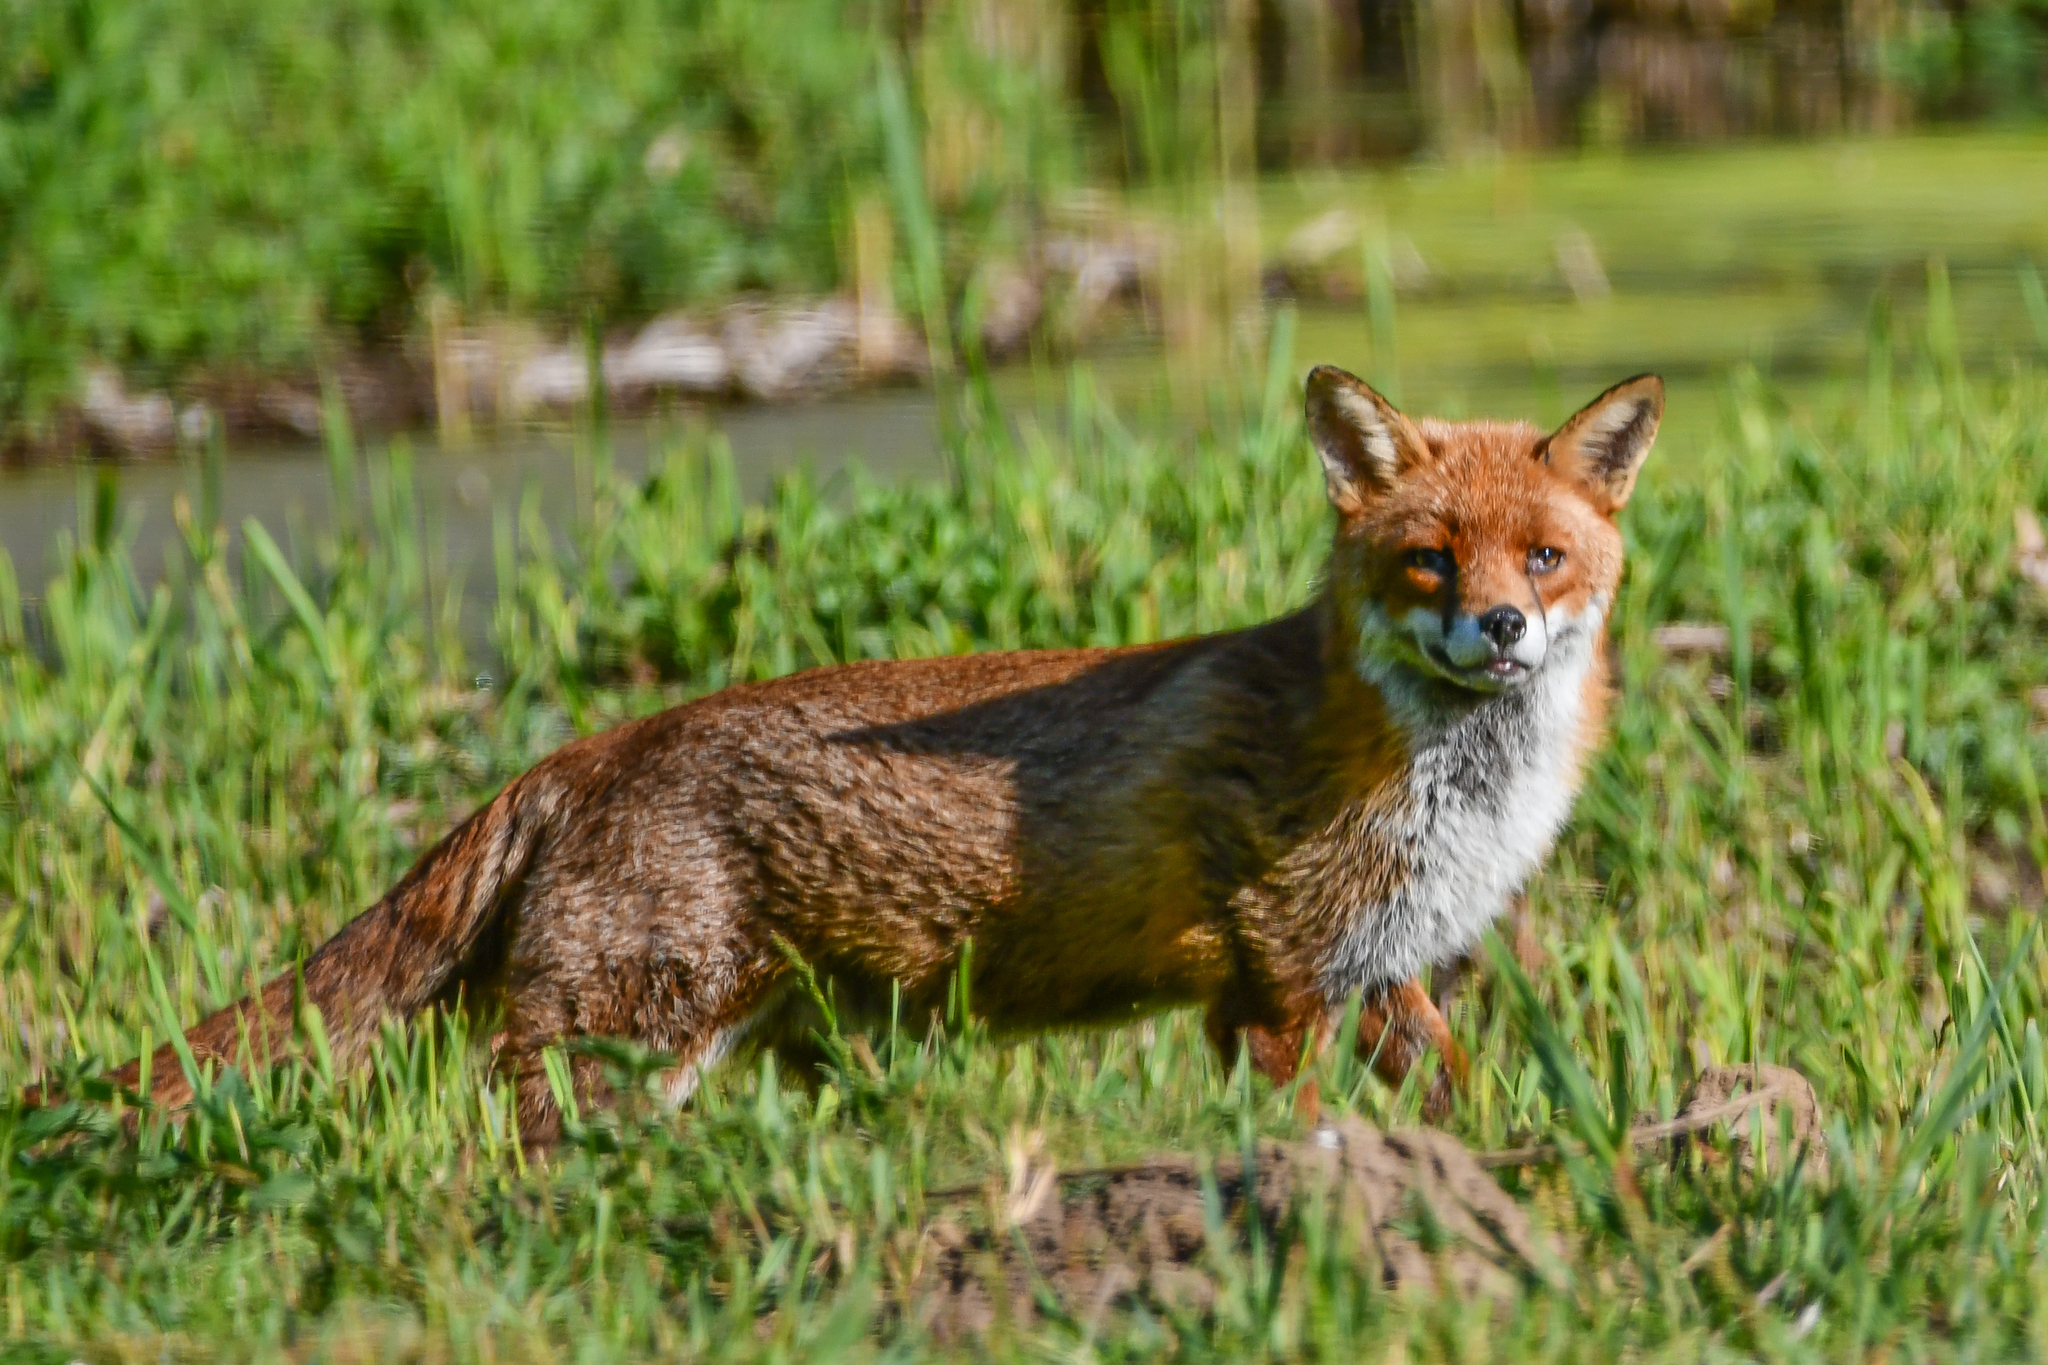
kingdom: Animalia
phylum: Chordata
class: Mammalia
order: Carnivora
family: Canidae
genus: Vulpes
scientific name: Vulpes vulpes
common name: Red fox
